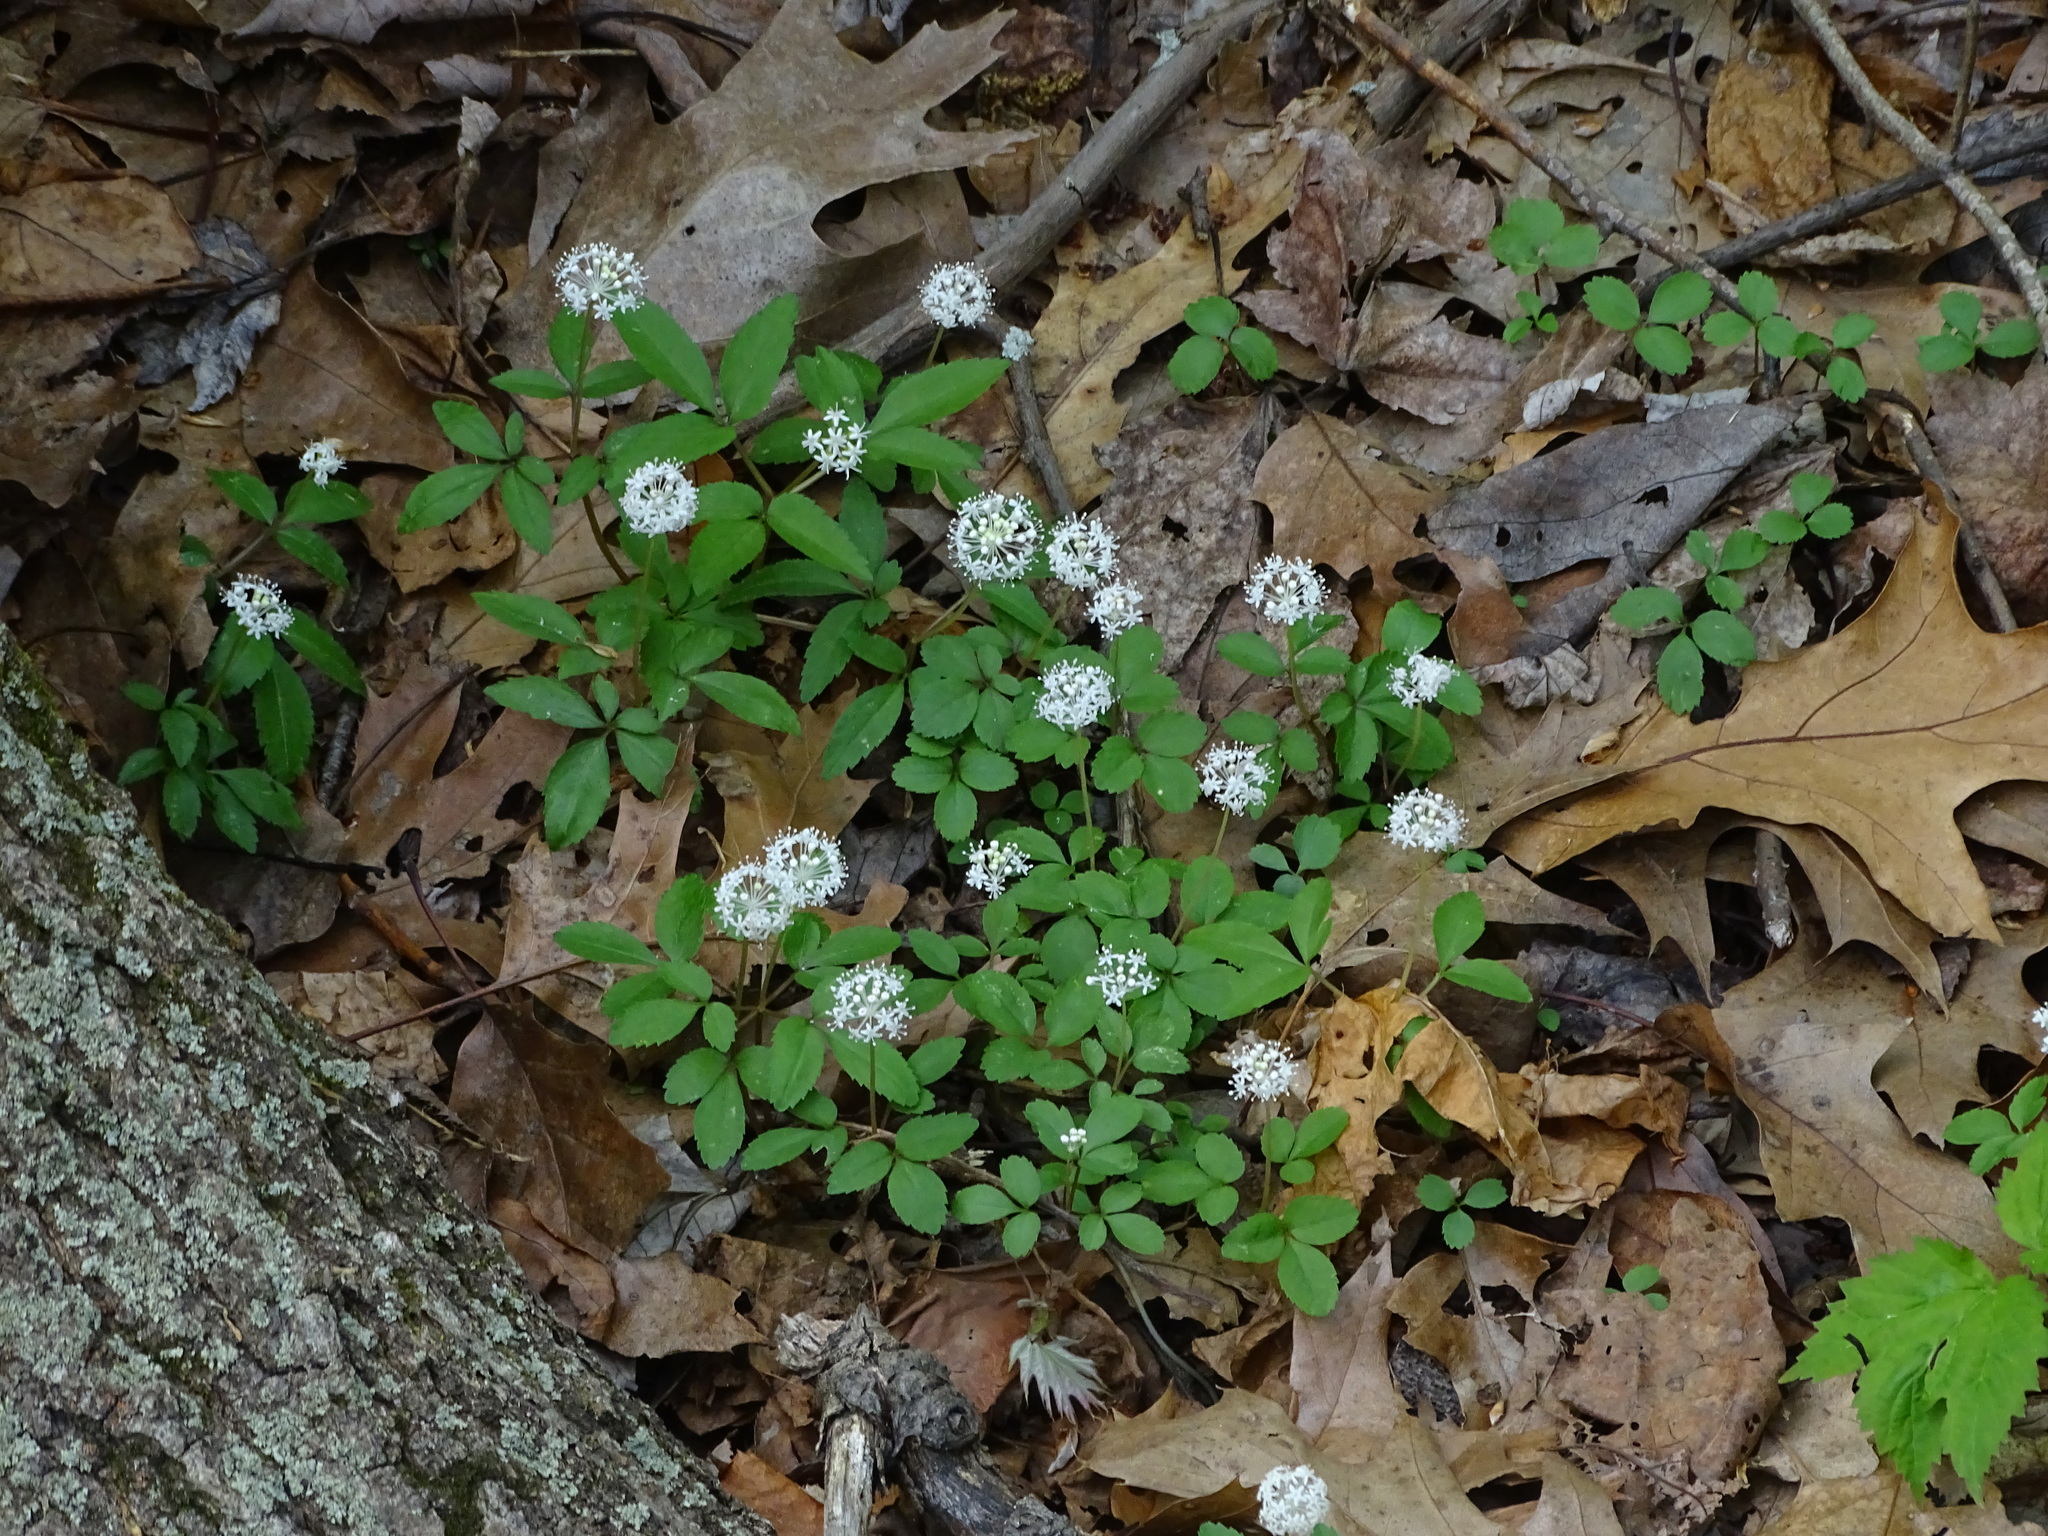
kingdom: Plantae
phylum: Tracheophyta
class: Magnoliopsida
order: Apiales
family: Araliaceae
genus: Panax
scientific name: Panax trifolius
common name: Dwarf ginseng
